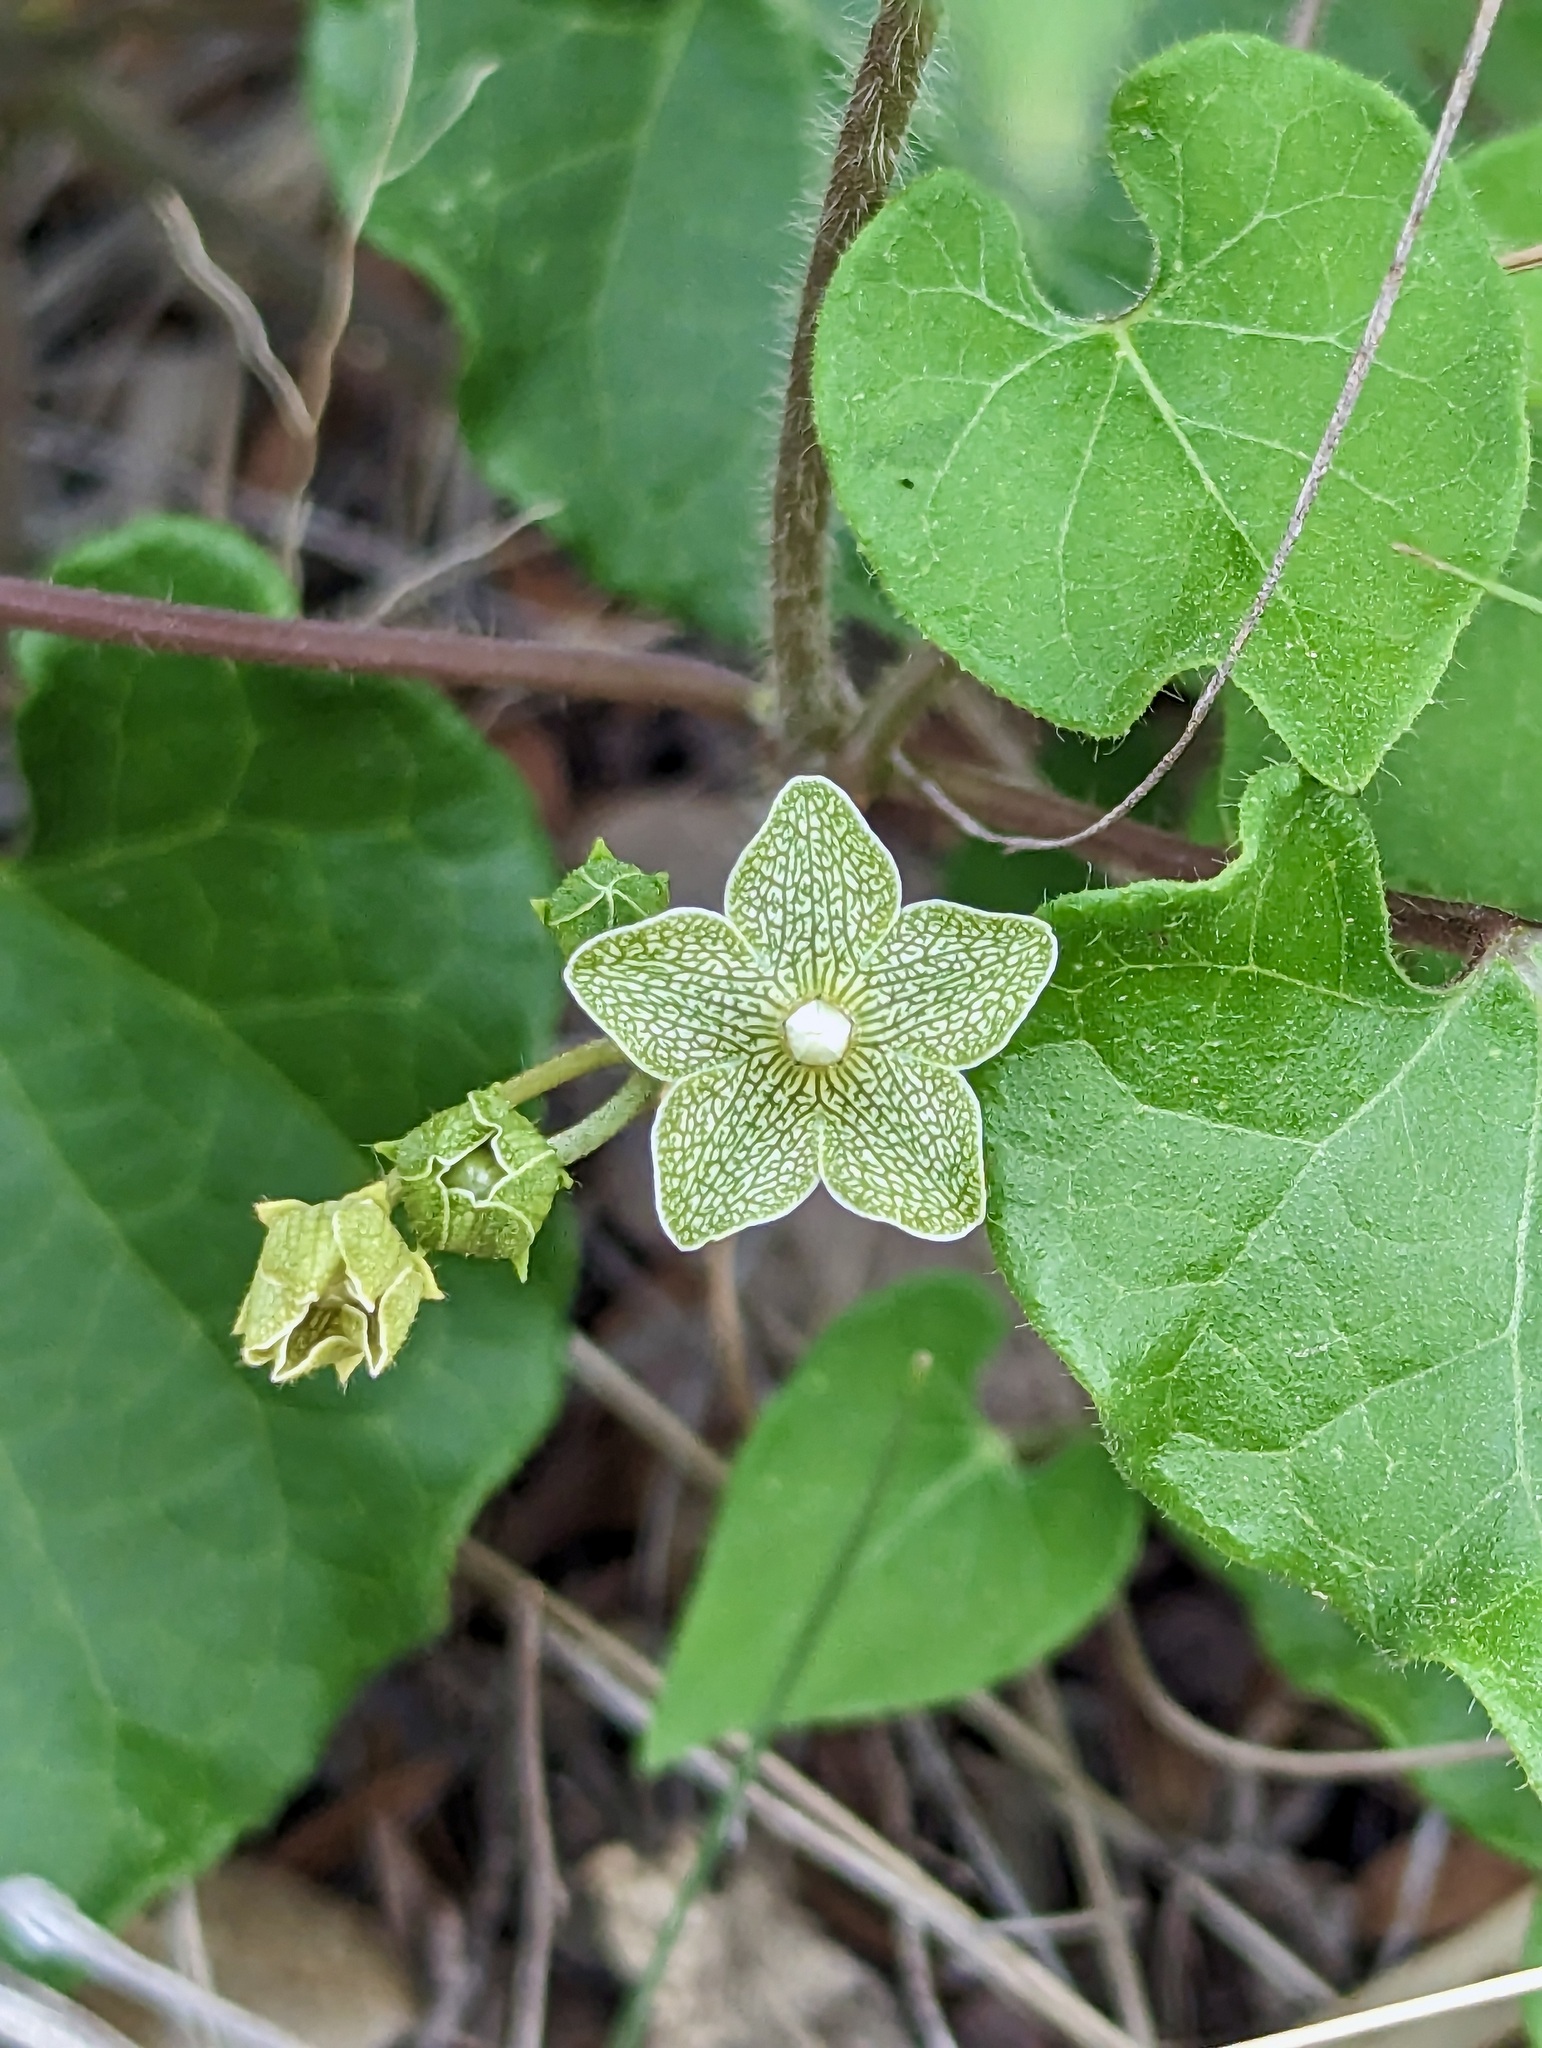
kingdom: Plantae
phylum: Tracheophyta
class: Magnoliopsida
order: Gentianales
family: Apocynaceae
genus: Dictyanthus
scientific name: Dictyanthus reticulatus
